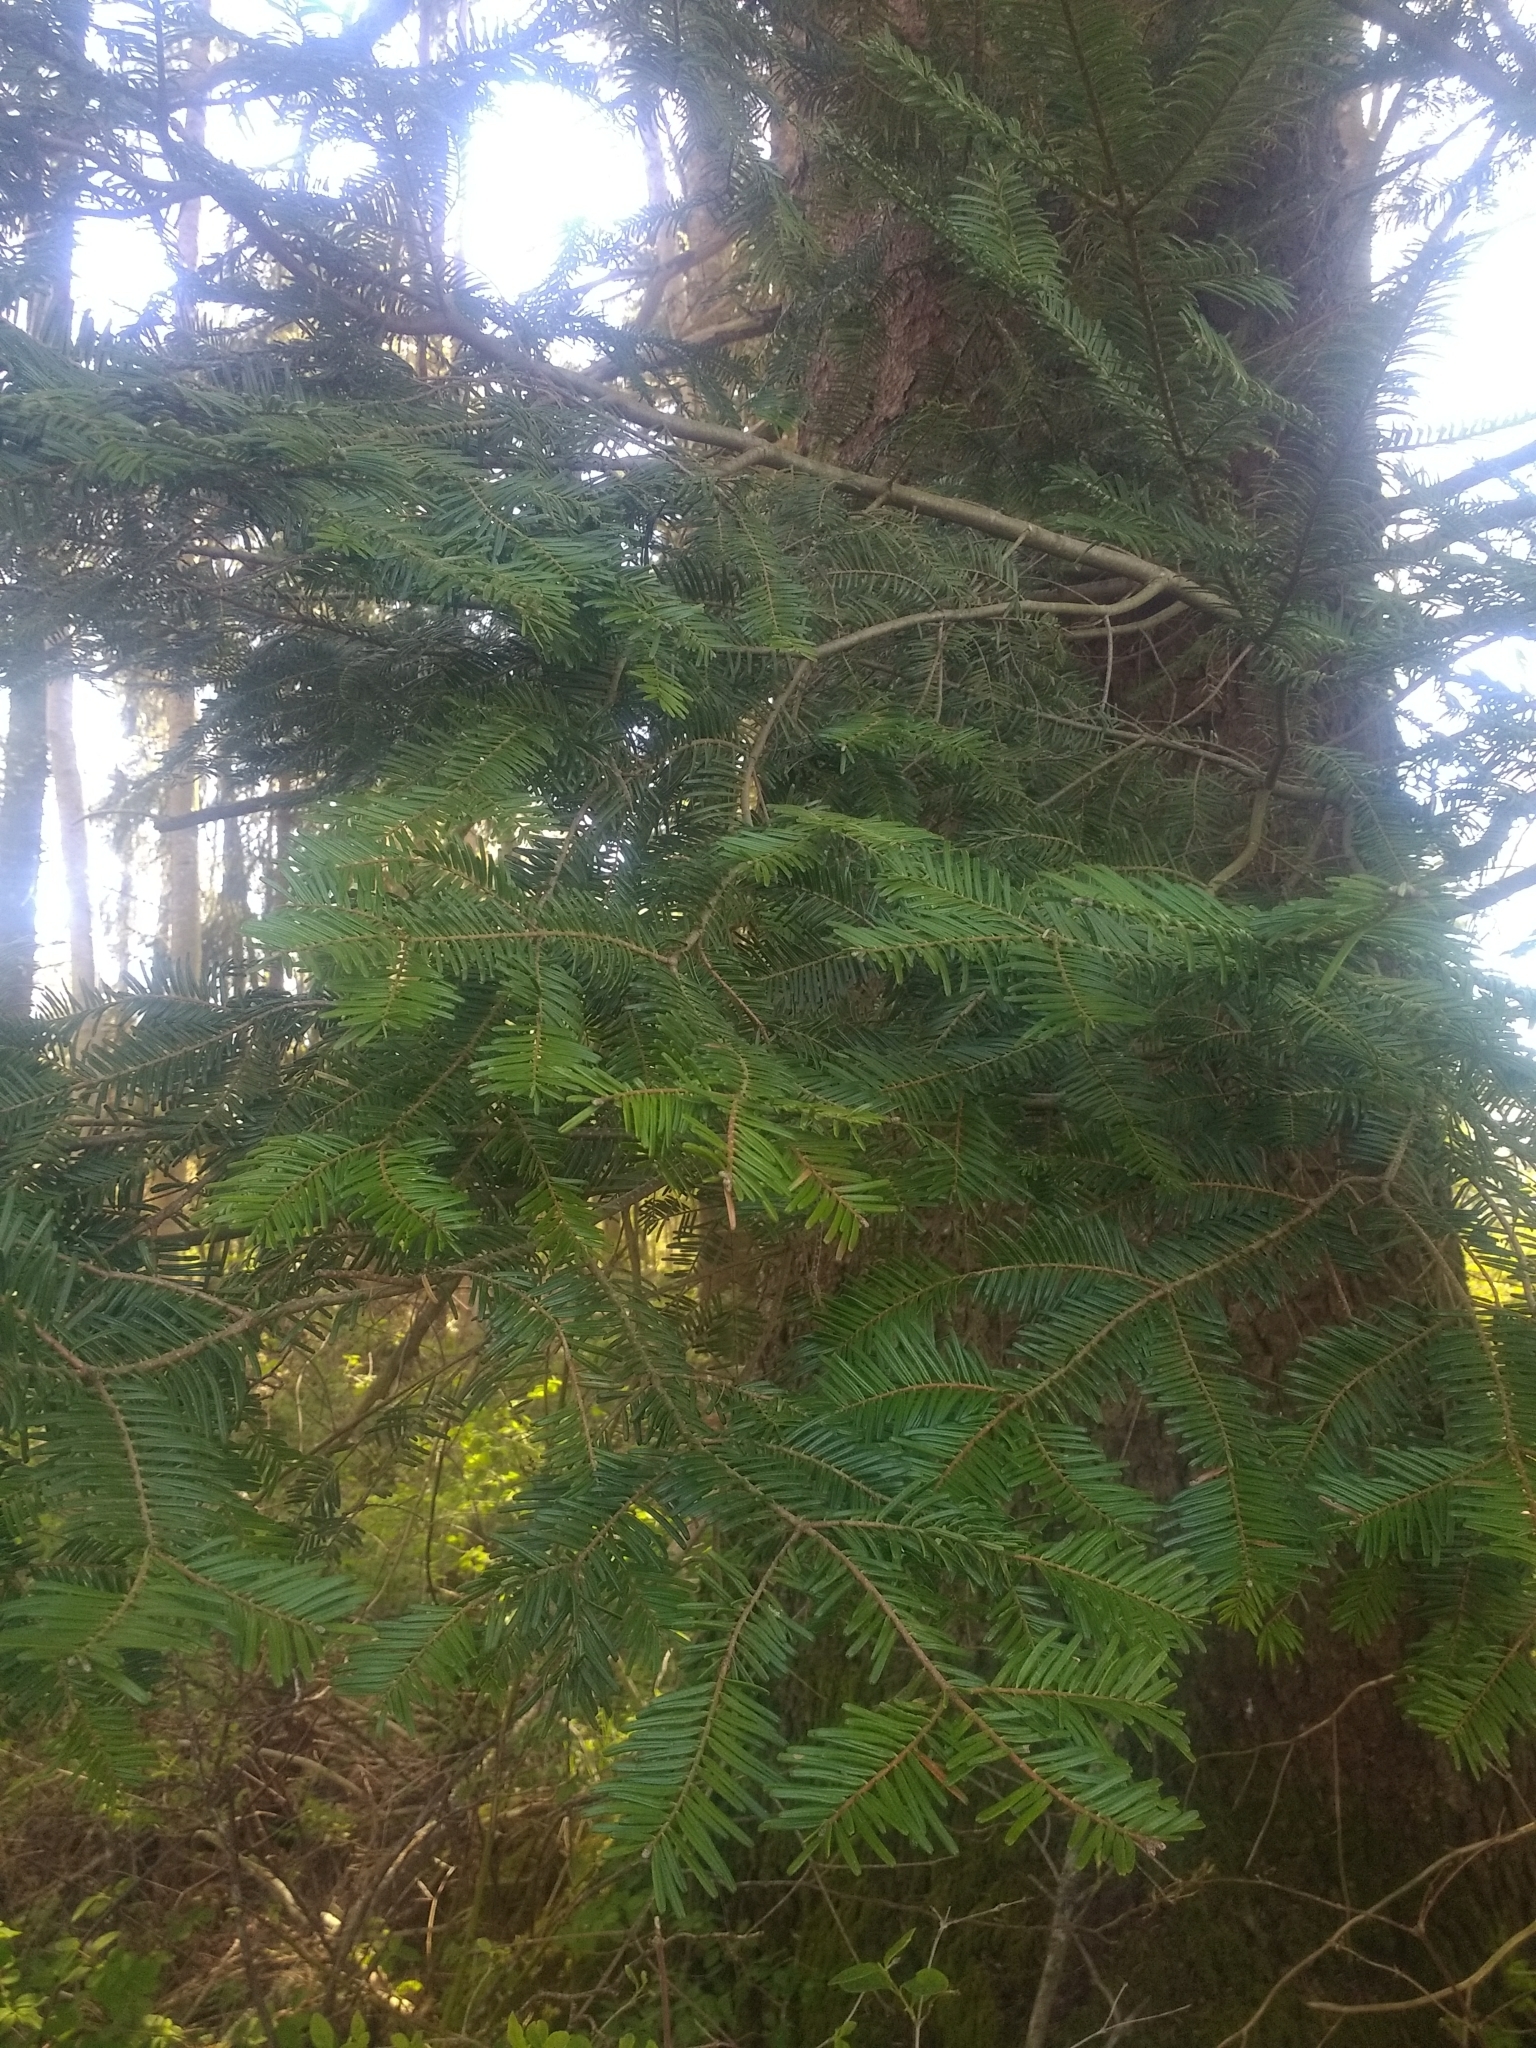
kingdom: Plantae
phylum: Tracheophyta
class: Pinopsida
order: Pinales
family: Pinaceae
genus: Abies
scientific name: Abies grandis
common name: Giant fir
